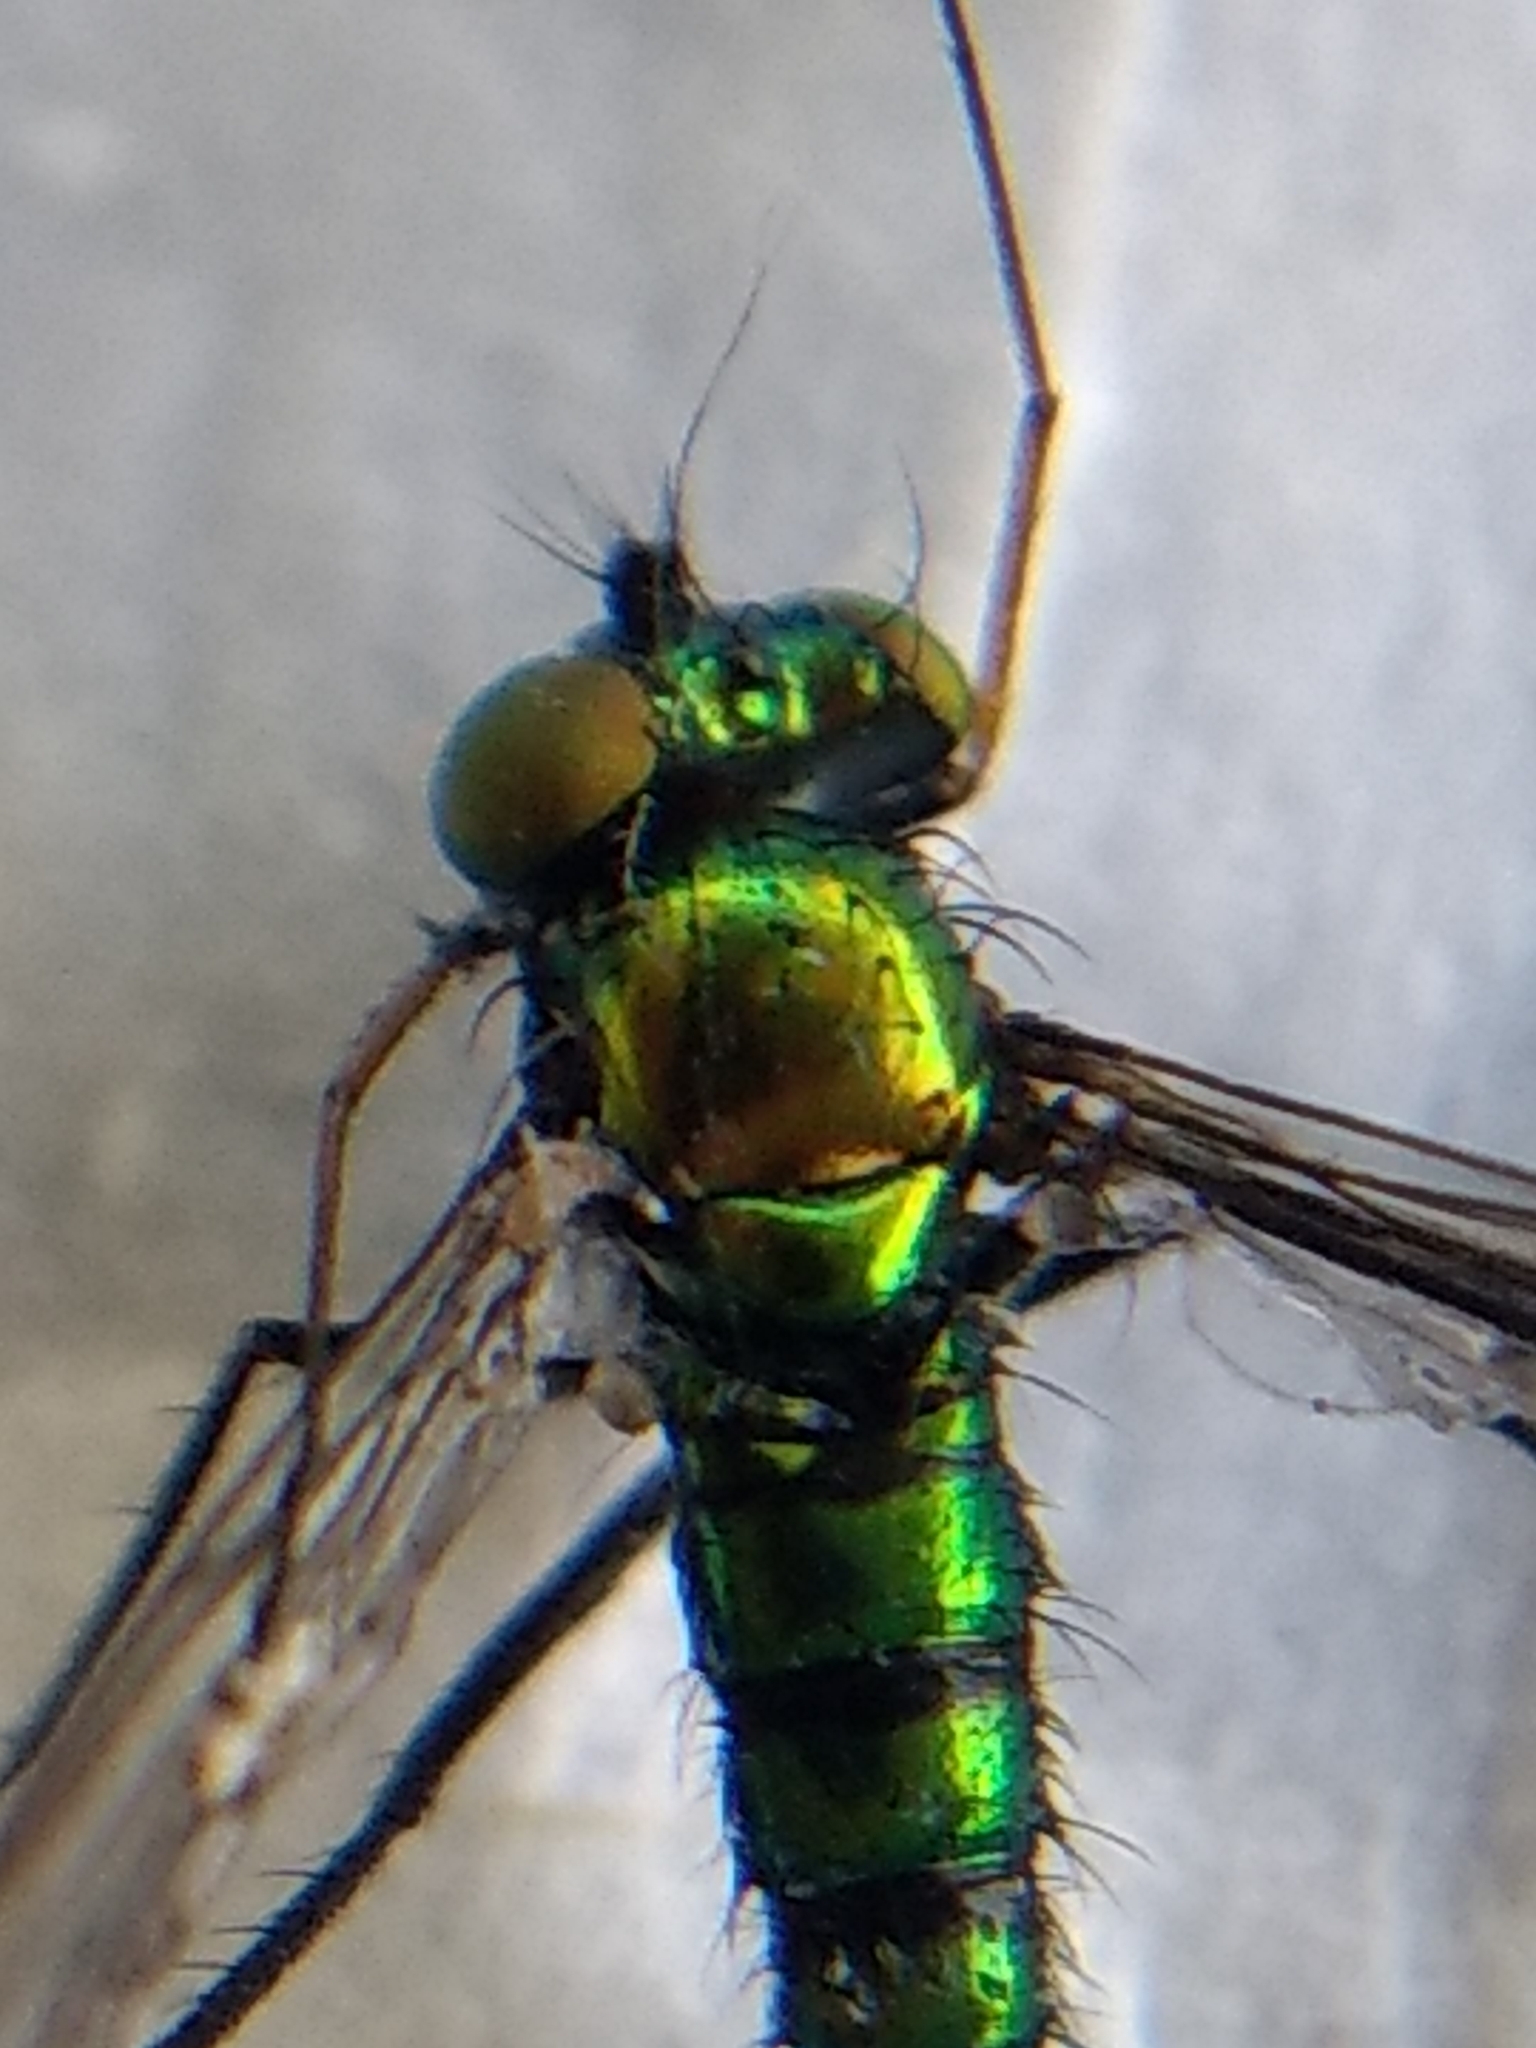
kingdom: Animalia
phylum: Arthropoda
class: Insecta
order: Diptera
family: Dolichopodidae
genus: Condylostylus
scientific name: Condylostylus longicornis
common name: Long-legged fly
